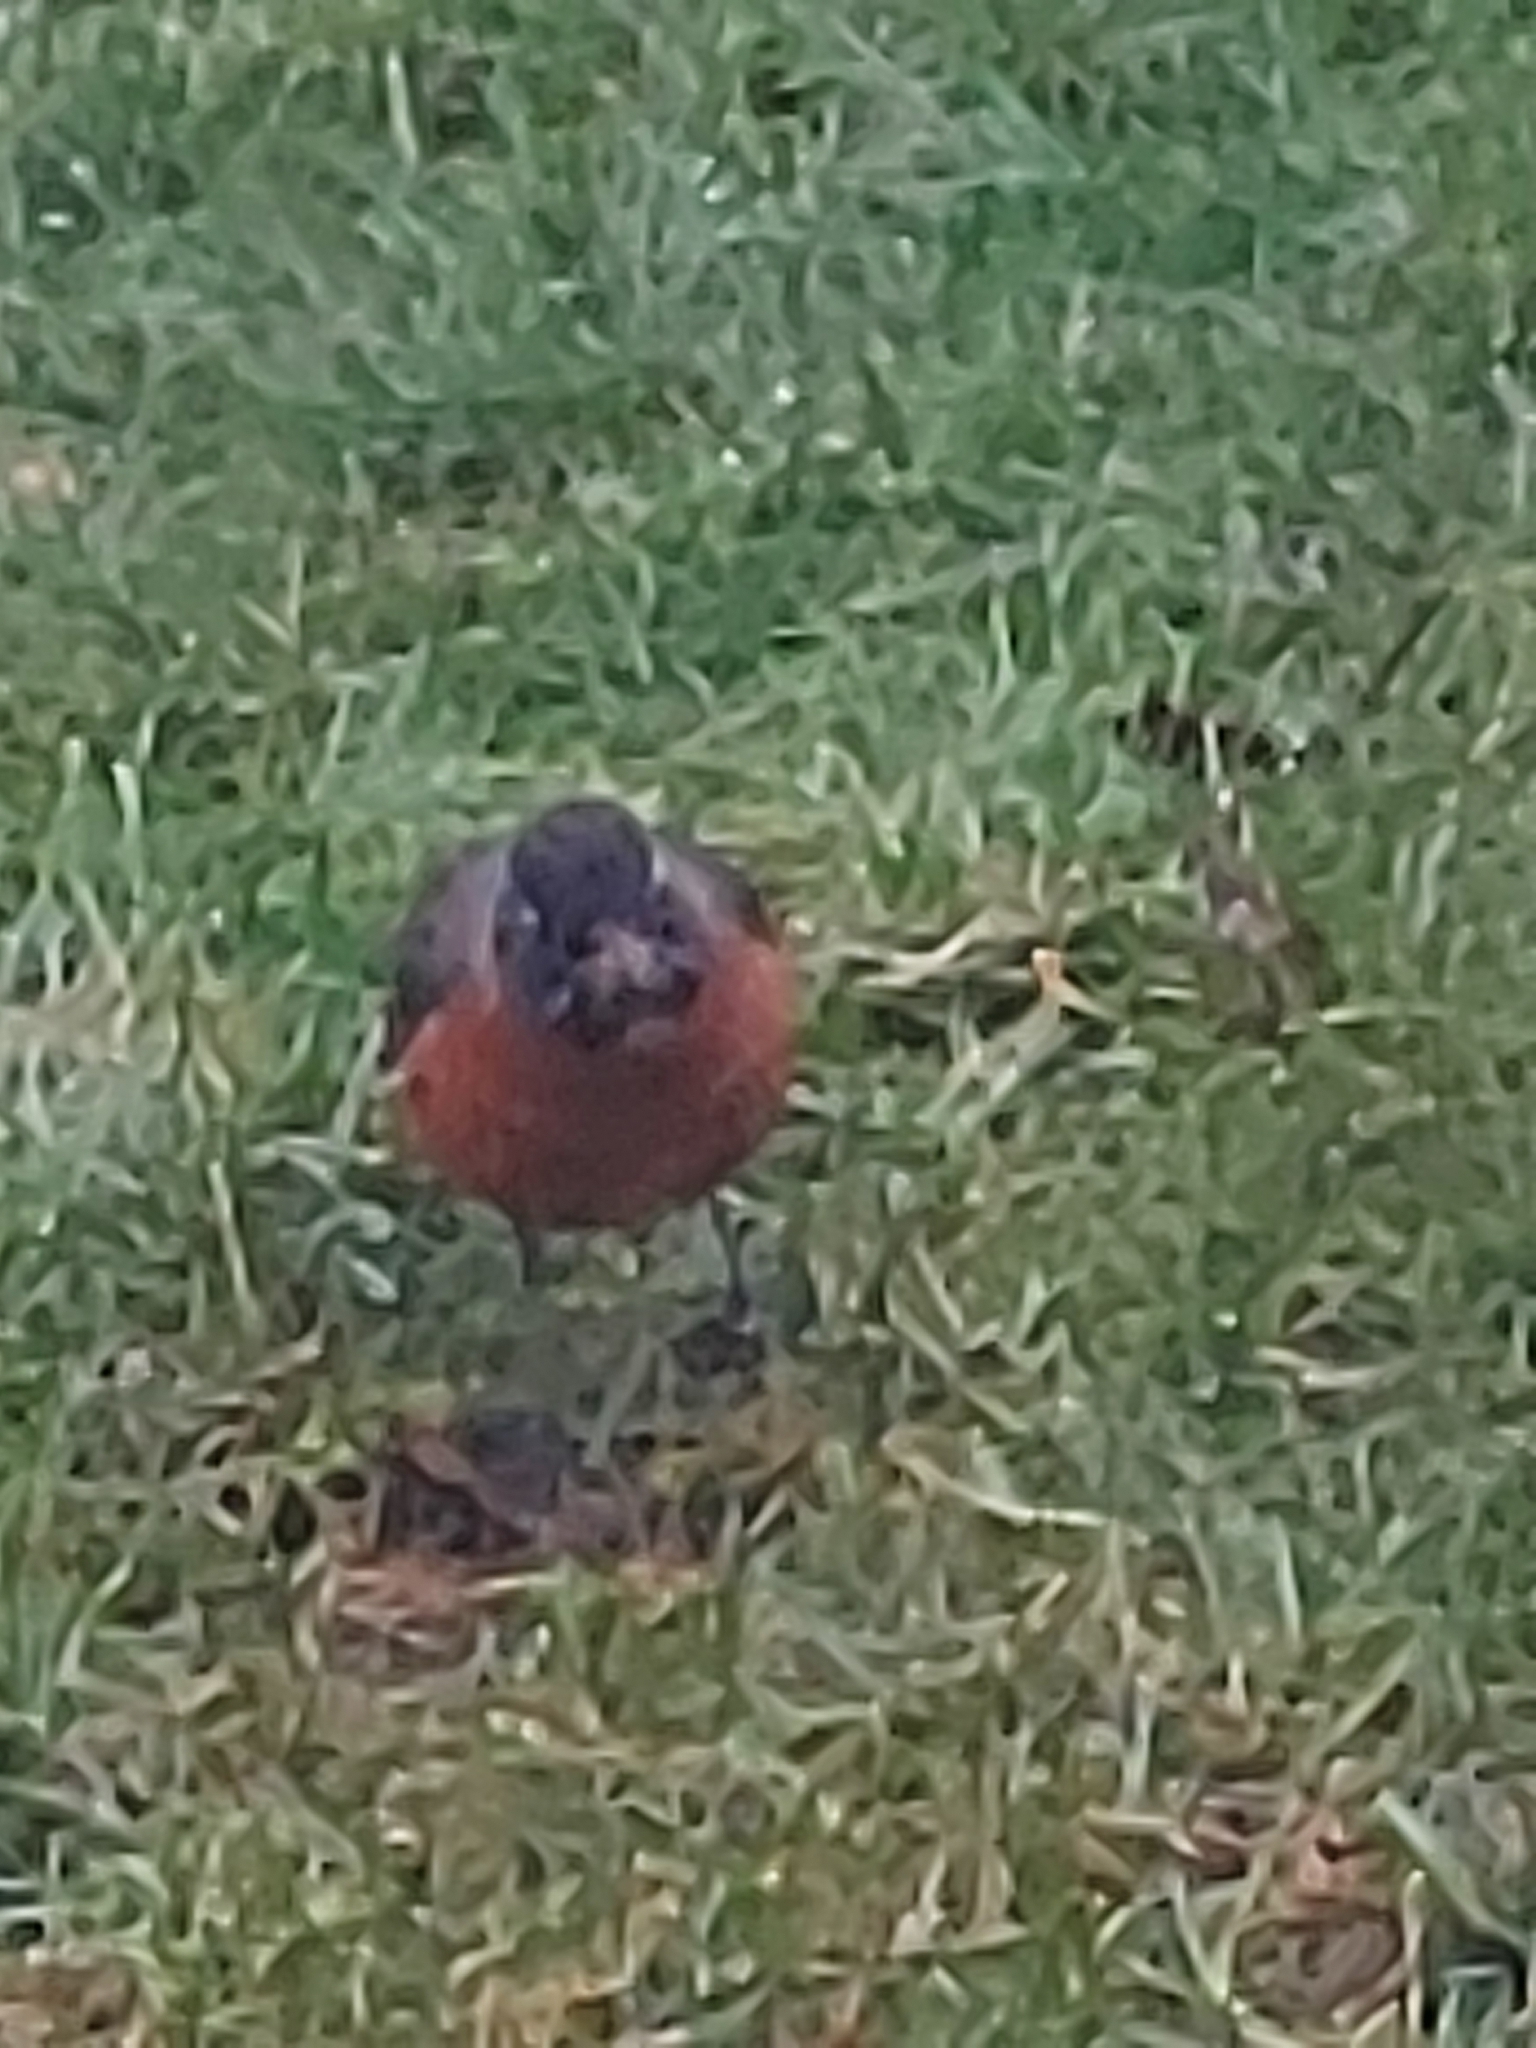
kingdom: Animalia
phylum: Chordata
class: Aves
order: Passeriformes
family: Turdidae
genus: Turdus
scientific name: Turdus migratorius
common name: American robin
